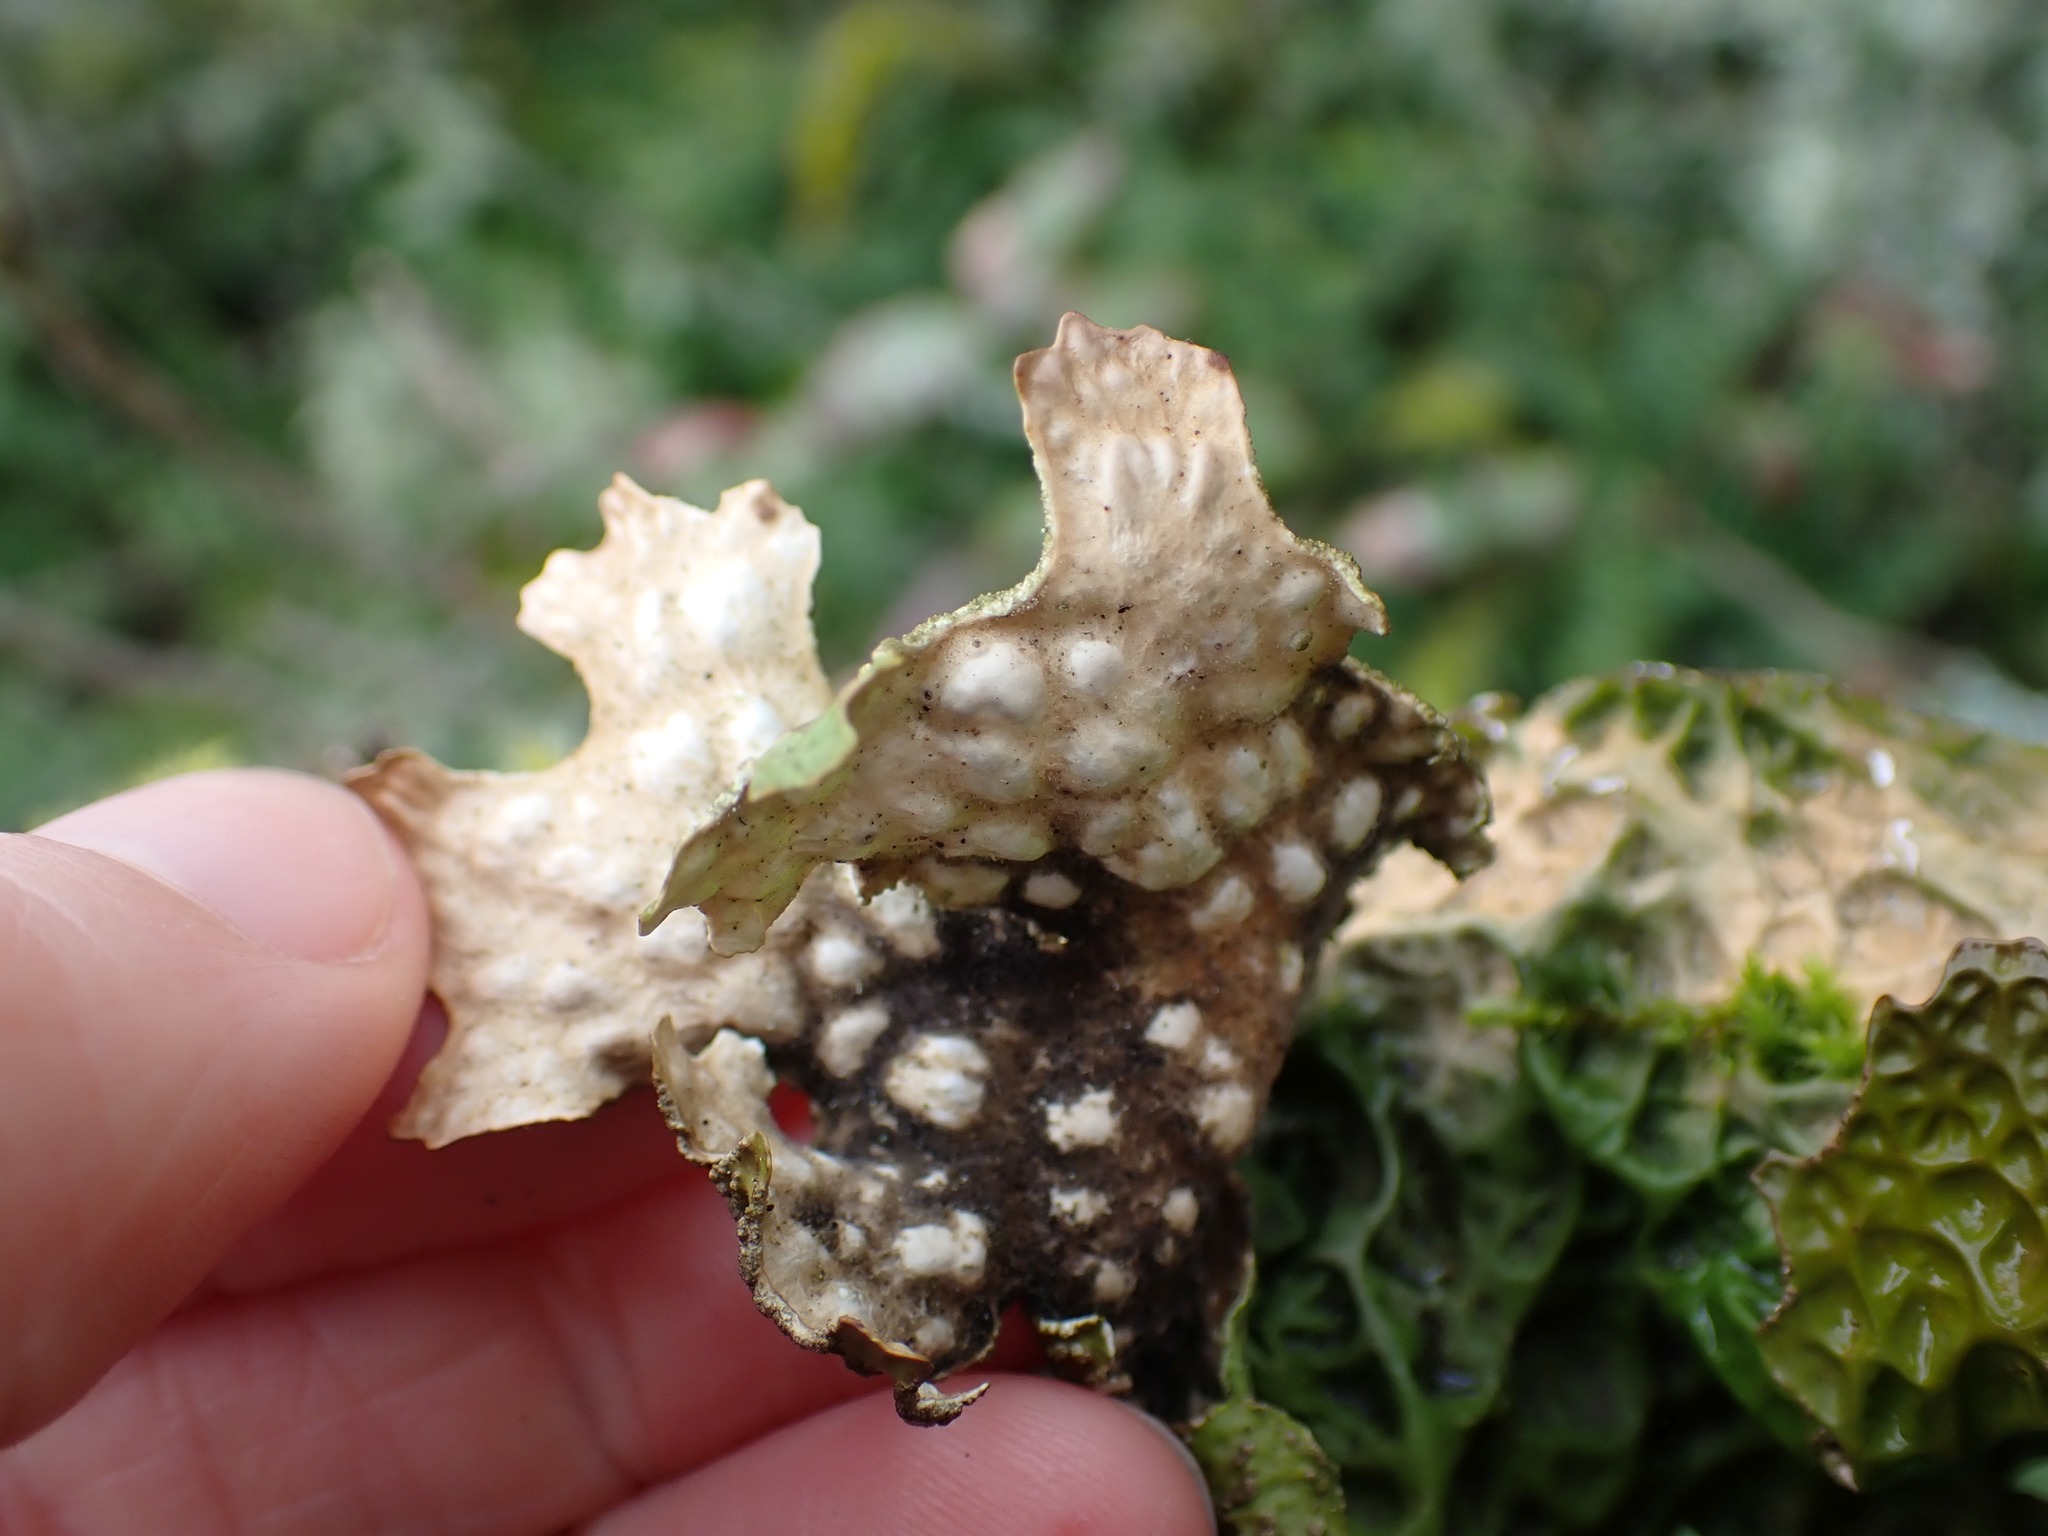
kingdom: Fungi
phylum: Ascomycota
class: Lecanoromycetes
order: Peltigerales
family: Lobariaceae
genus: Lobaria
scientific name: Lobaria pulmonaria
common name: Lungwort
